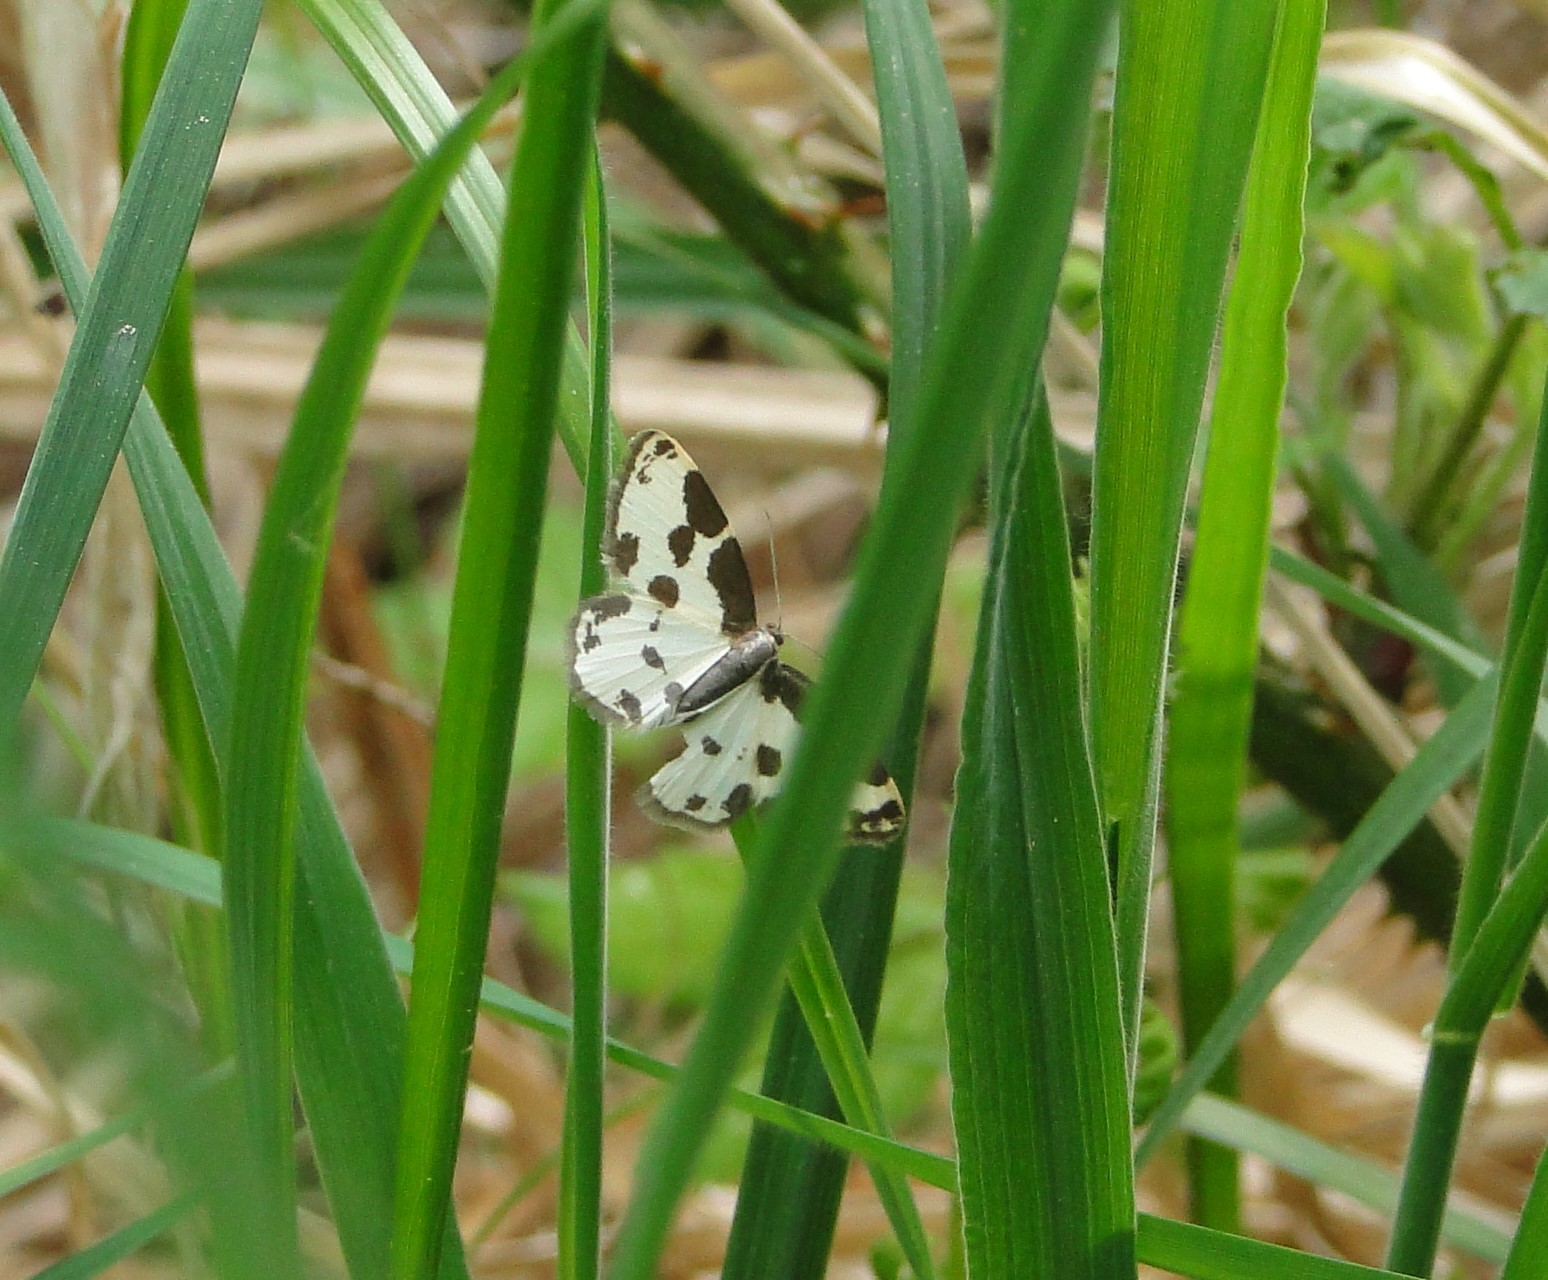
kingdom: Animalia
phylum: Arthropoda
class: Insecta
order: Lepidoptera
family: Geometridae
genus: Lomaspilis
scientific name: Lomaspilis marginata
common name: Clouded border
